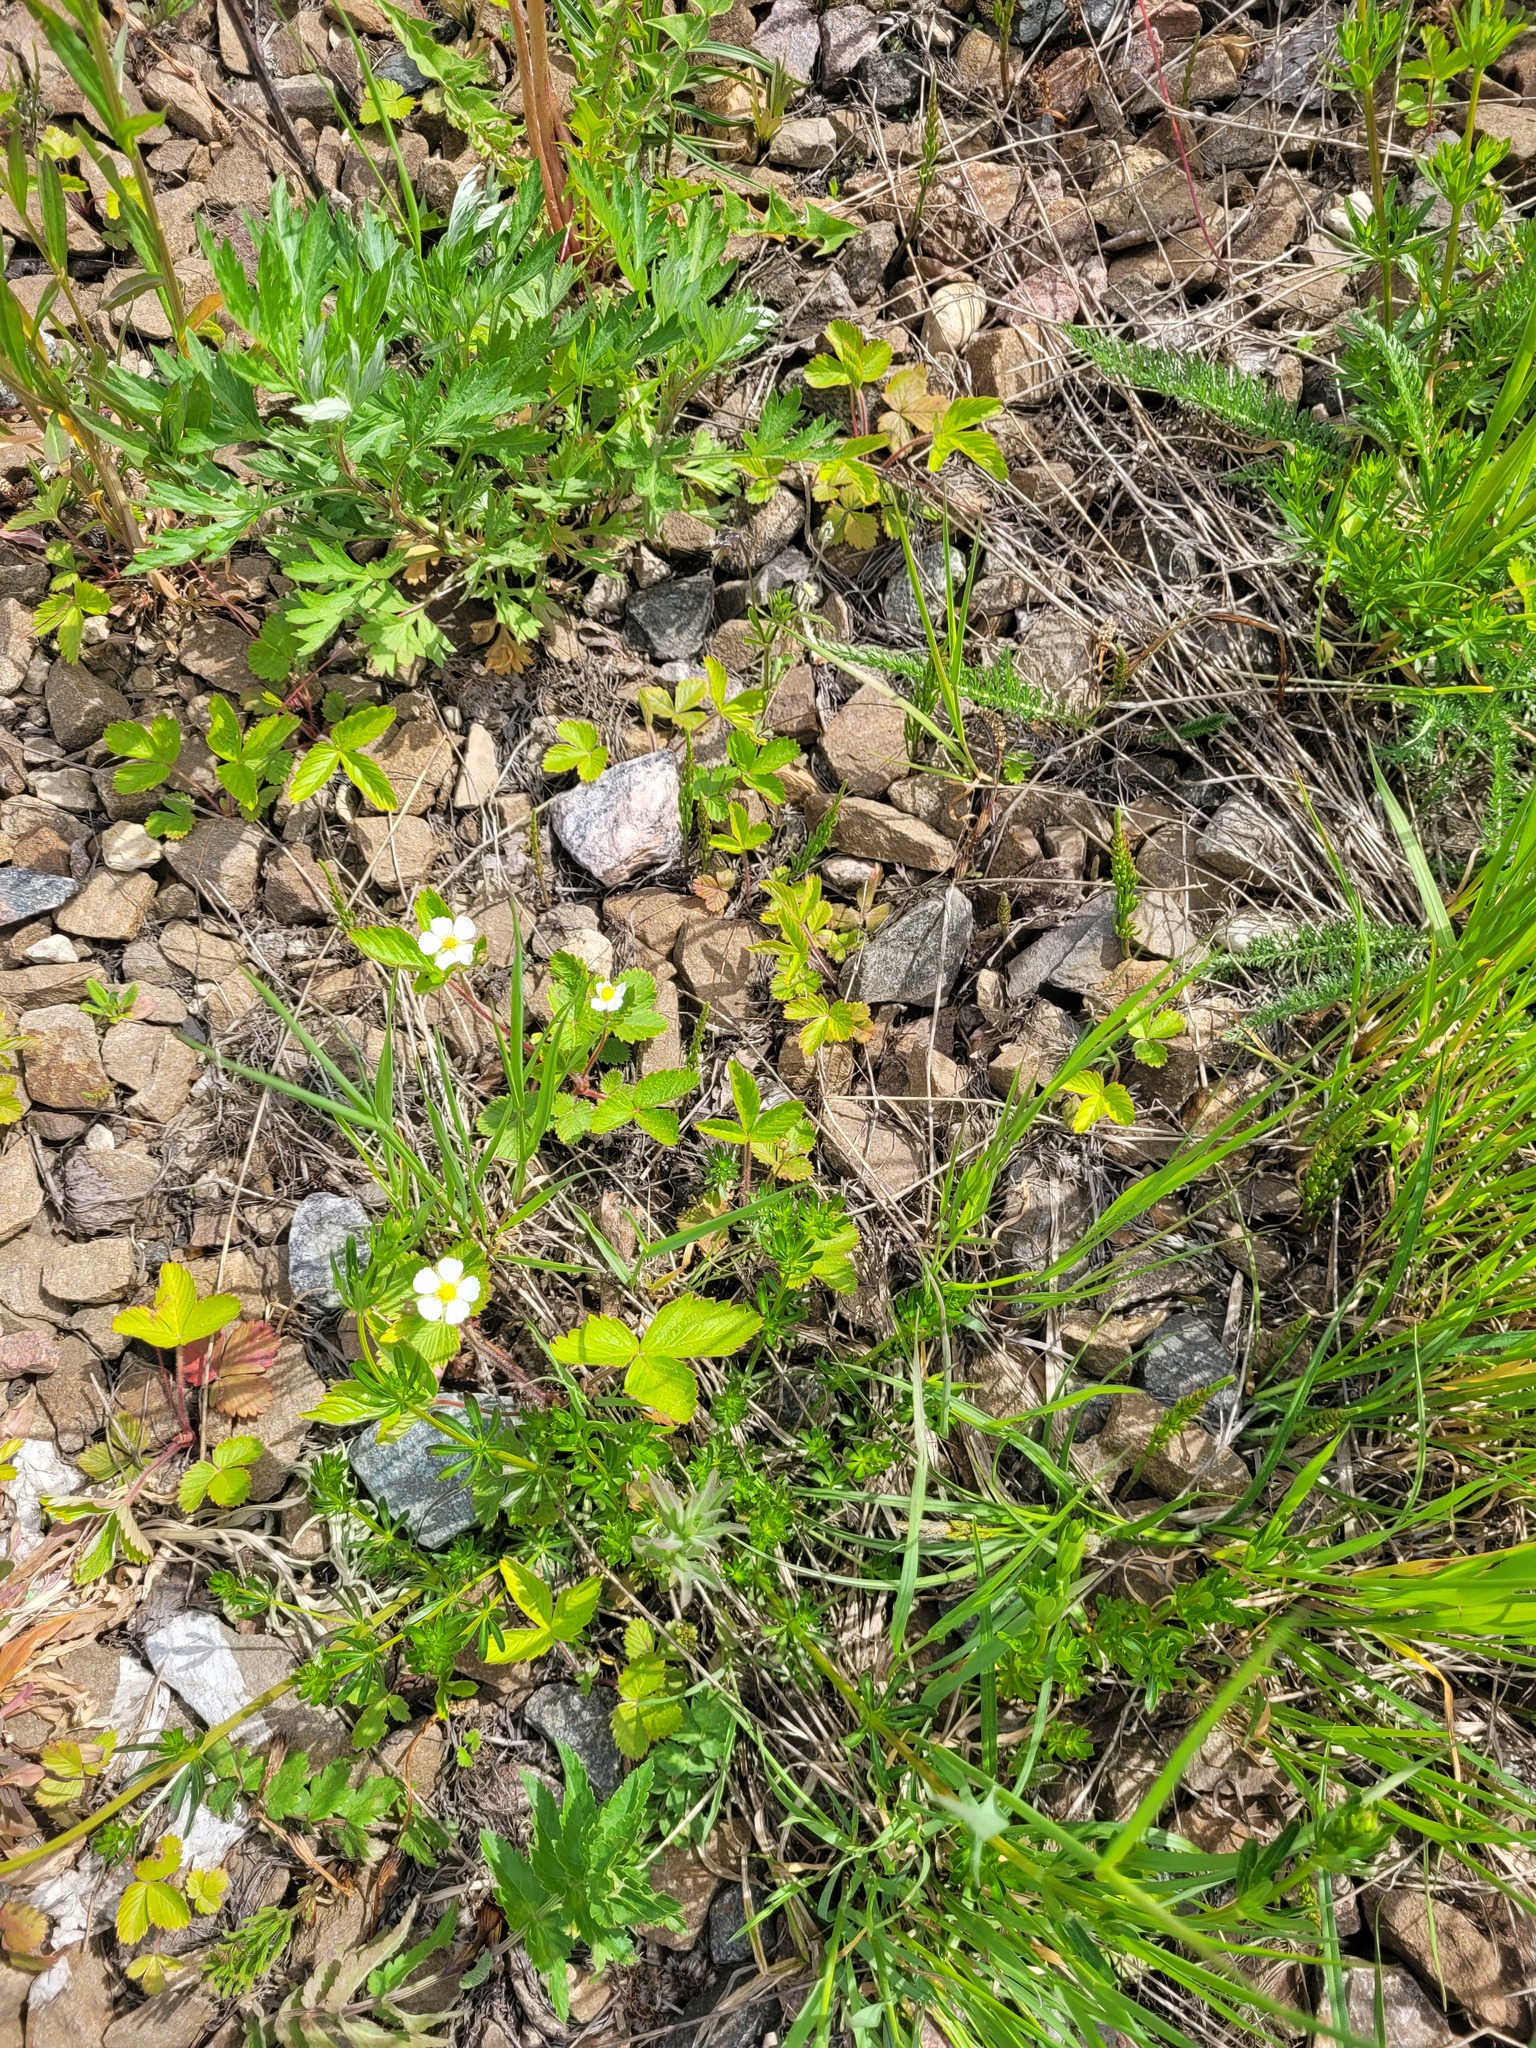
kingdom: Plantae
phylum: Tracheophyta
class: Magnoliopsida
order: Rosales
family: Rosaceae
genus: Fragaria
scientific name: Fragaria vesca
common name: Wild strawberry
